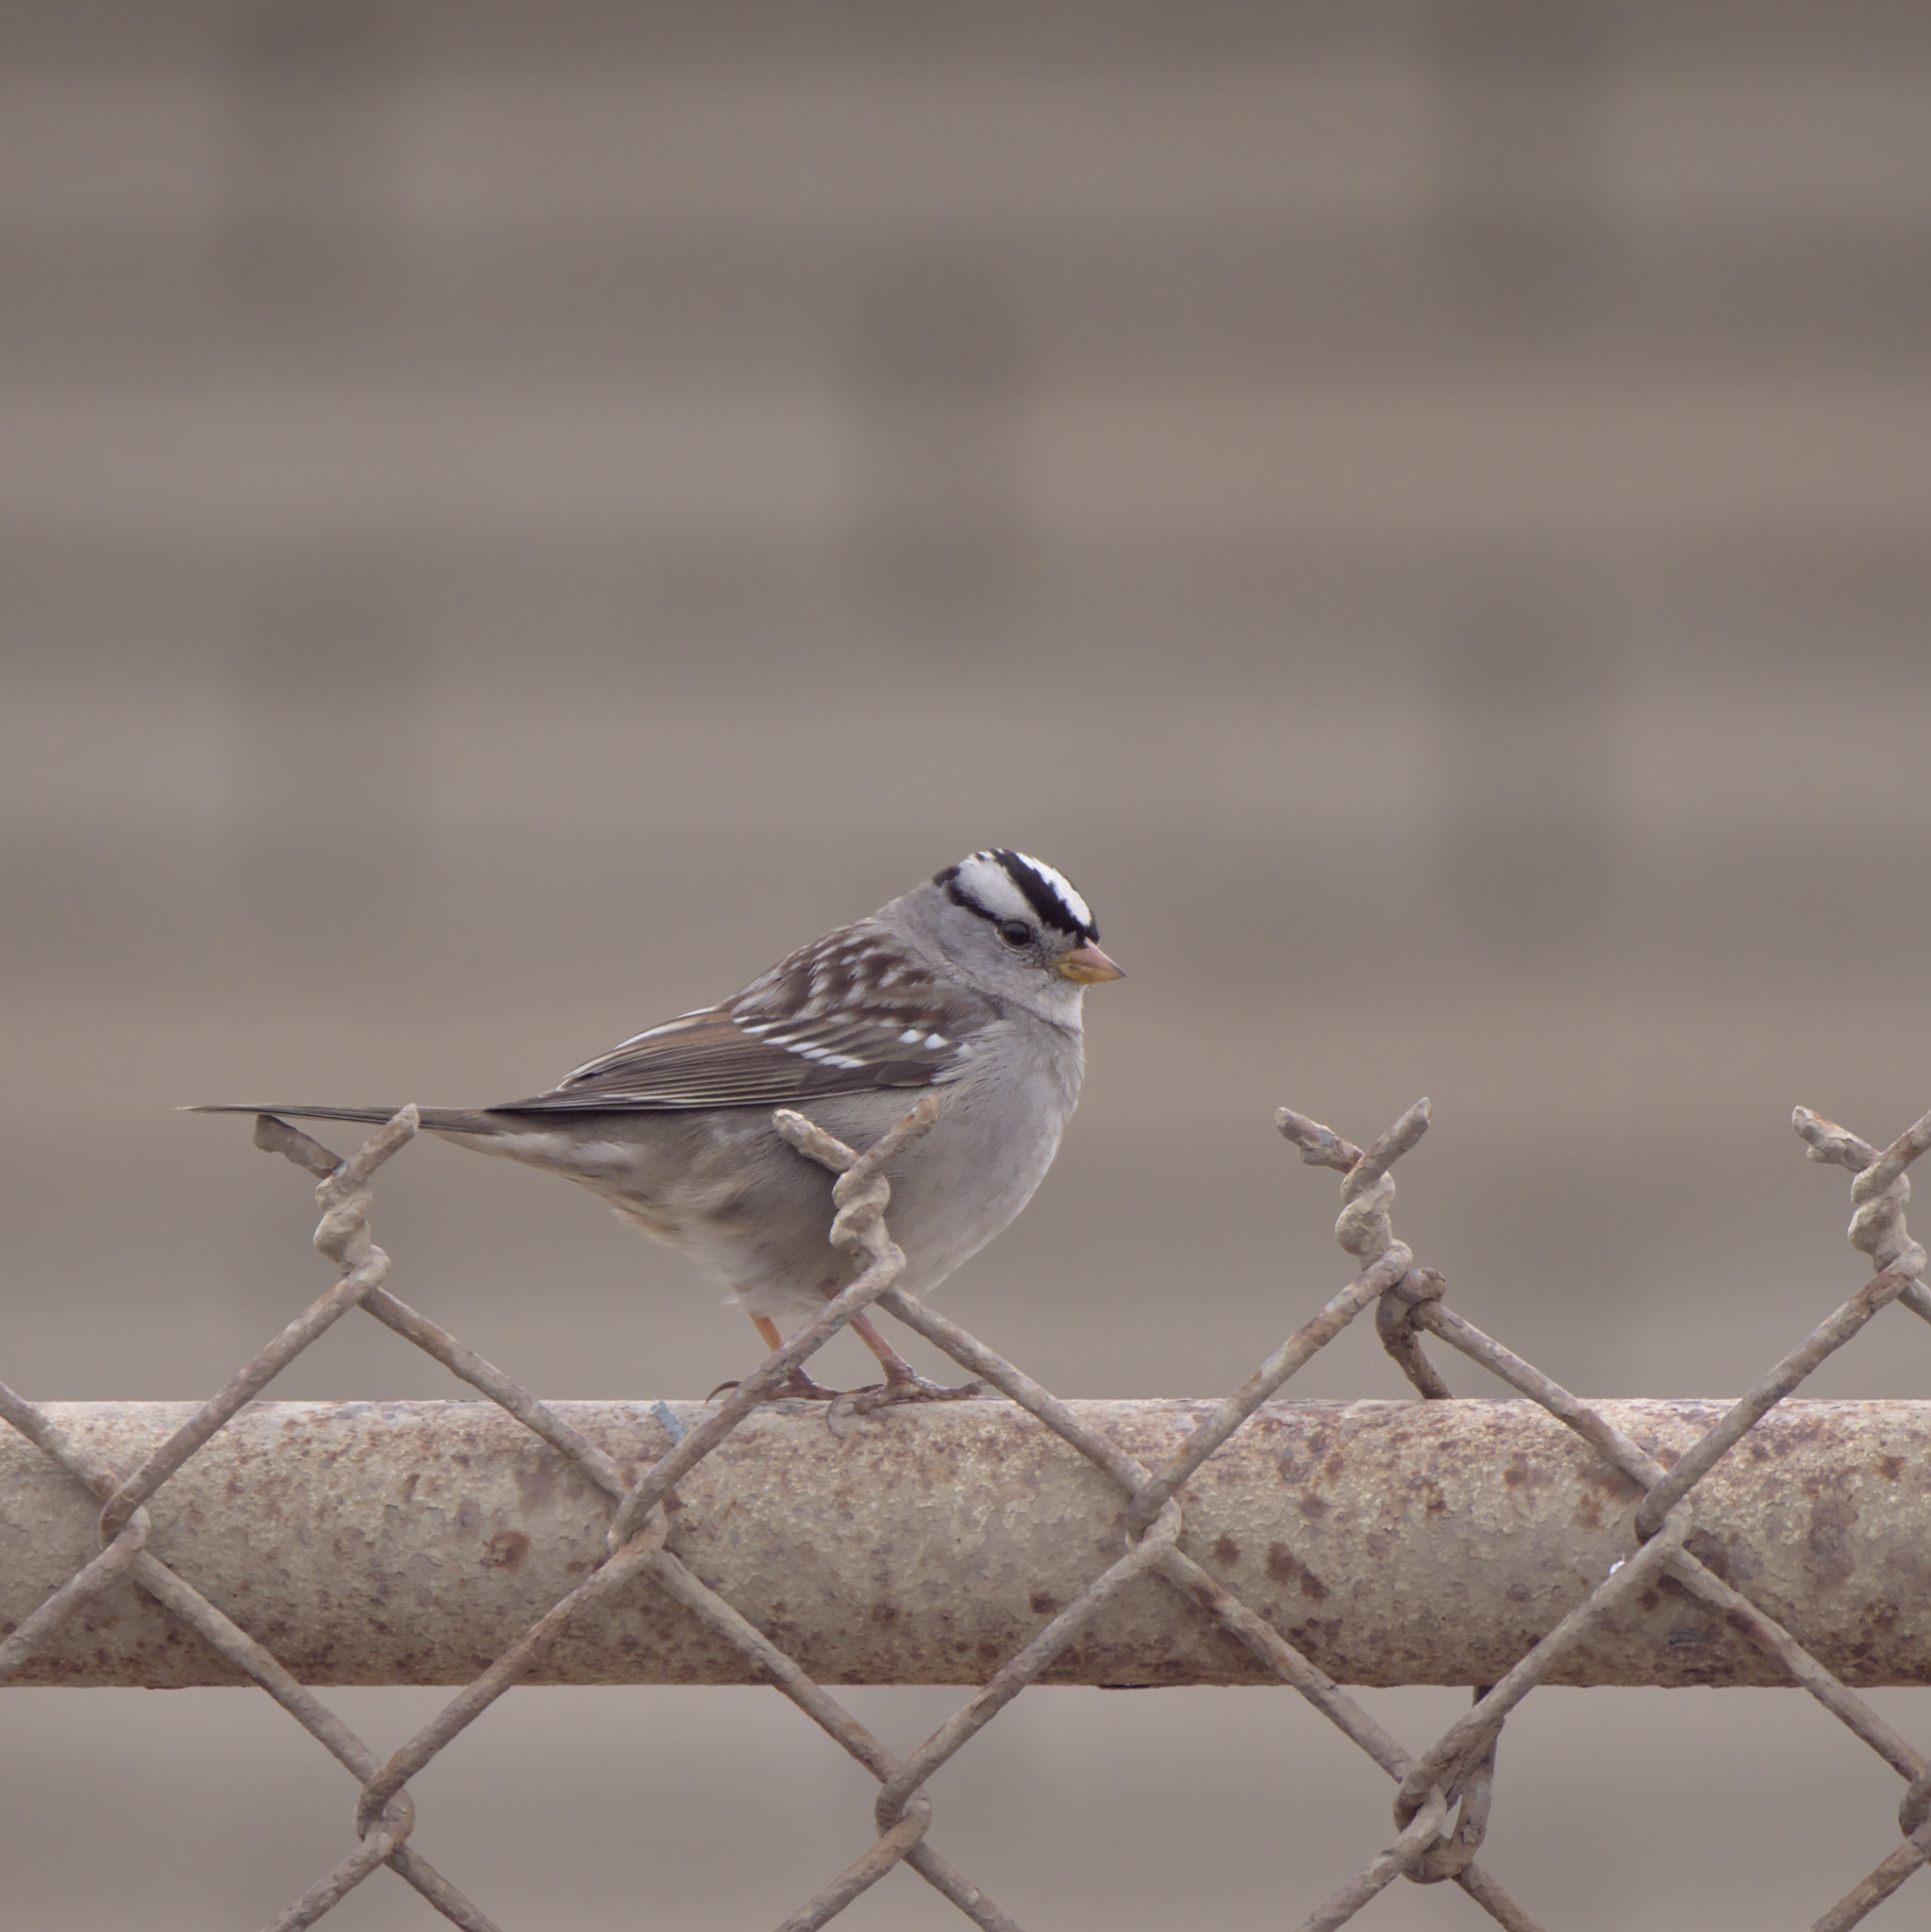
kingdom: Animalia
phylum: Chordata
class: Aves
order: Passeriformes
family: Passerellidae
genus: Zonotrichia
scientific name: Zonotrichia leucophrys
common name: White-crowned sparrow
